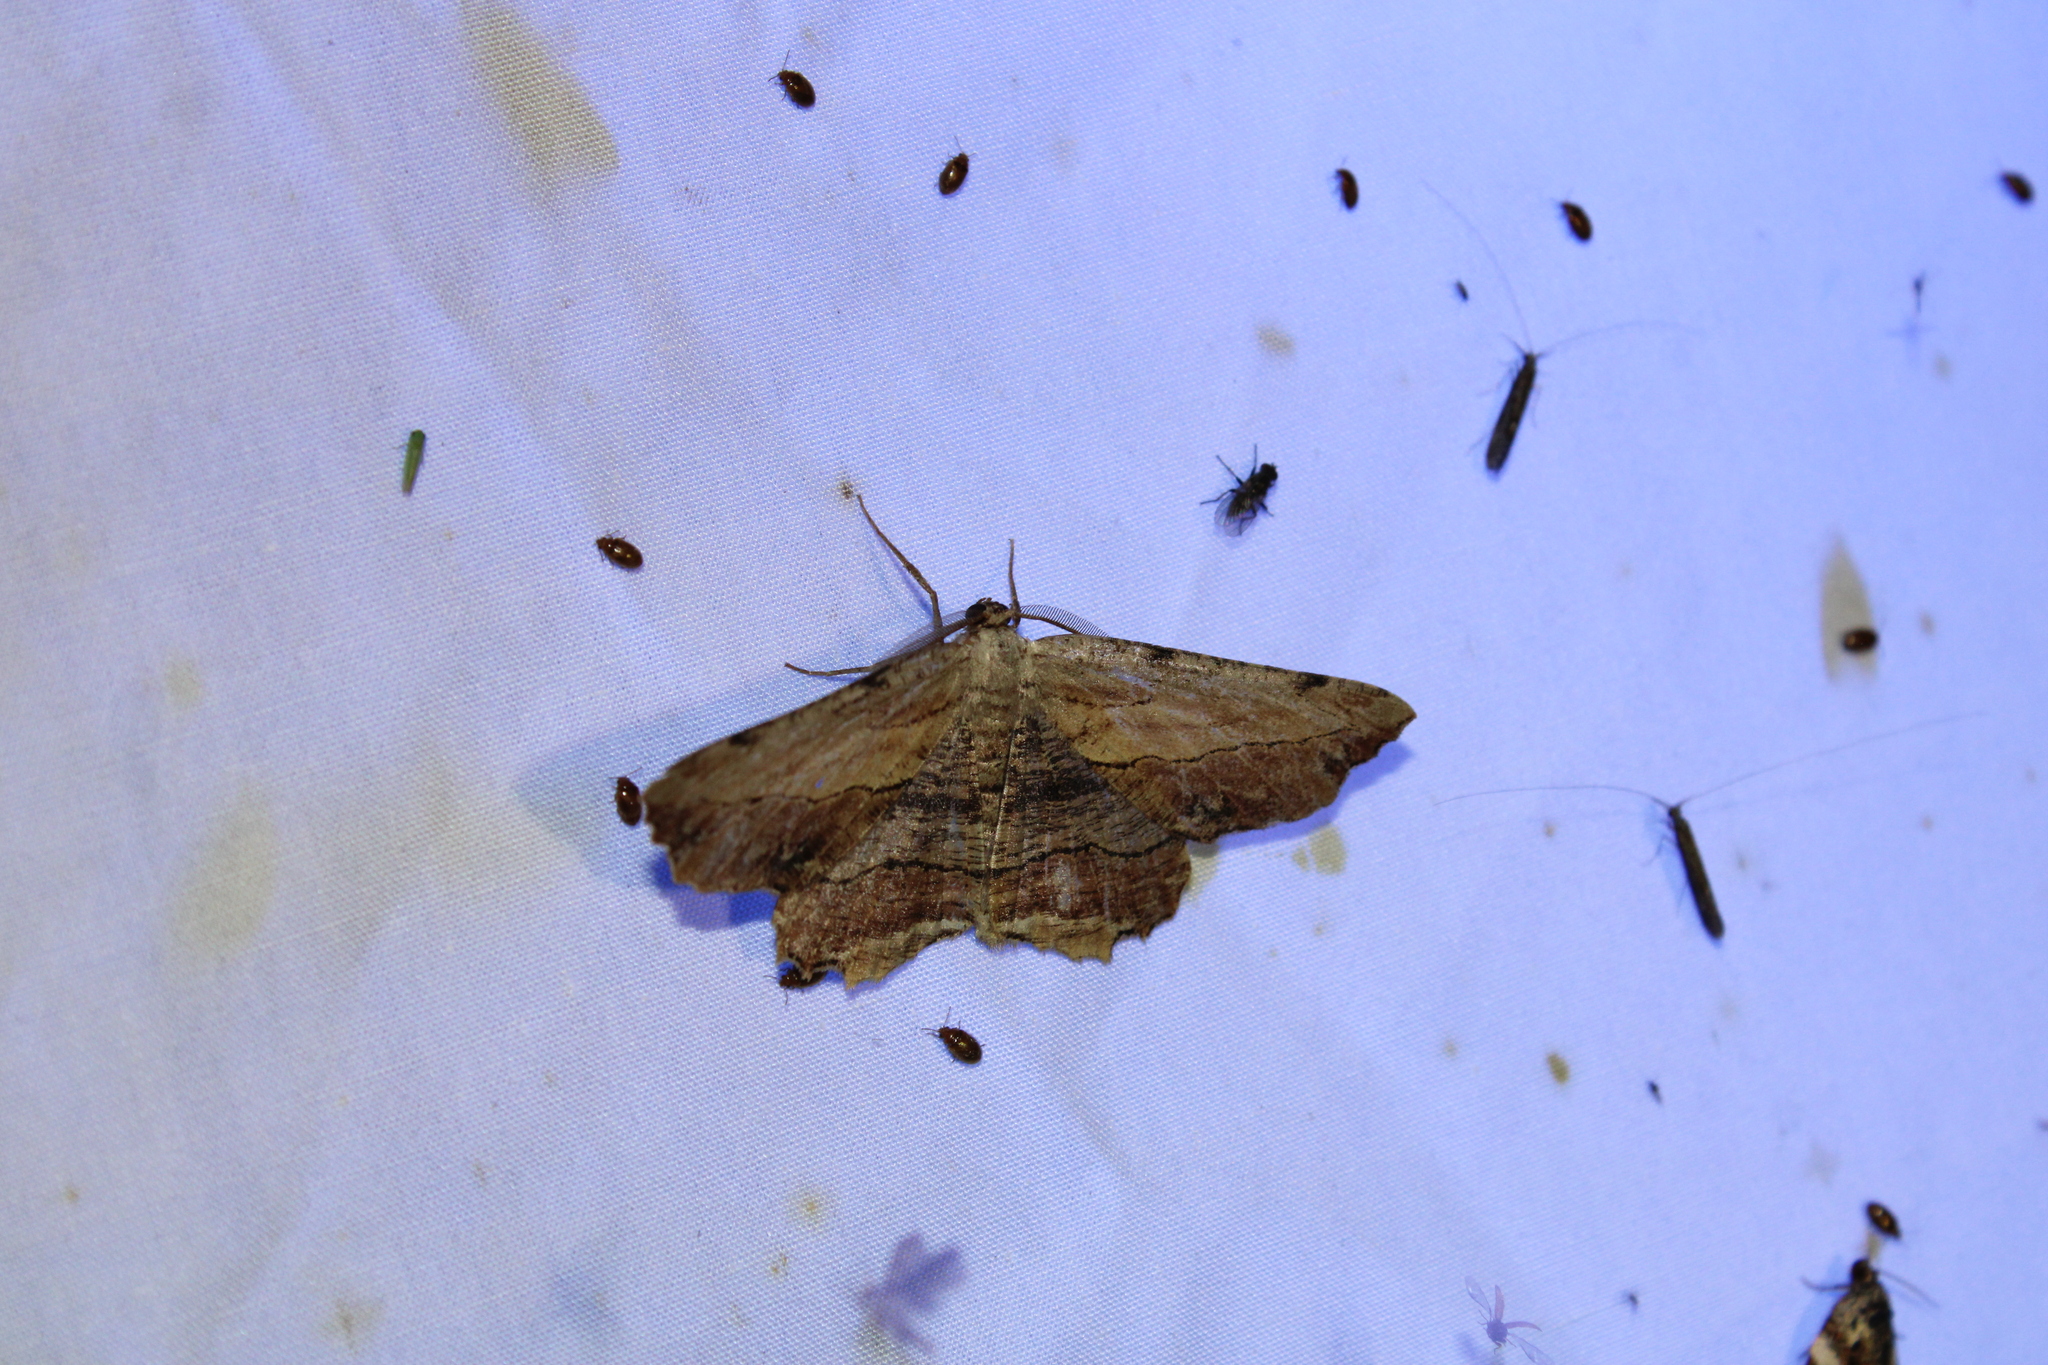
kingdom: Animalia
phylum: Arthropoda
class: Insecta
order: Lepidoptera
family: Geometridae
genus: Lytrosis
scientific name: Lytrosis unitaria
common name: Common lytrosis
